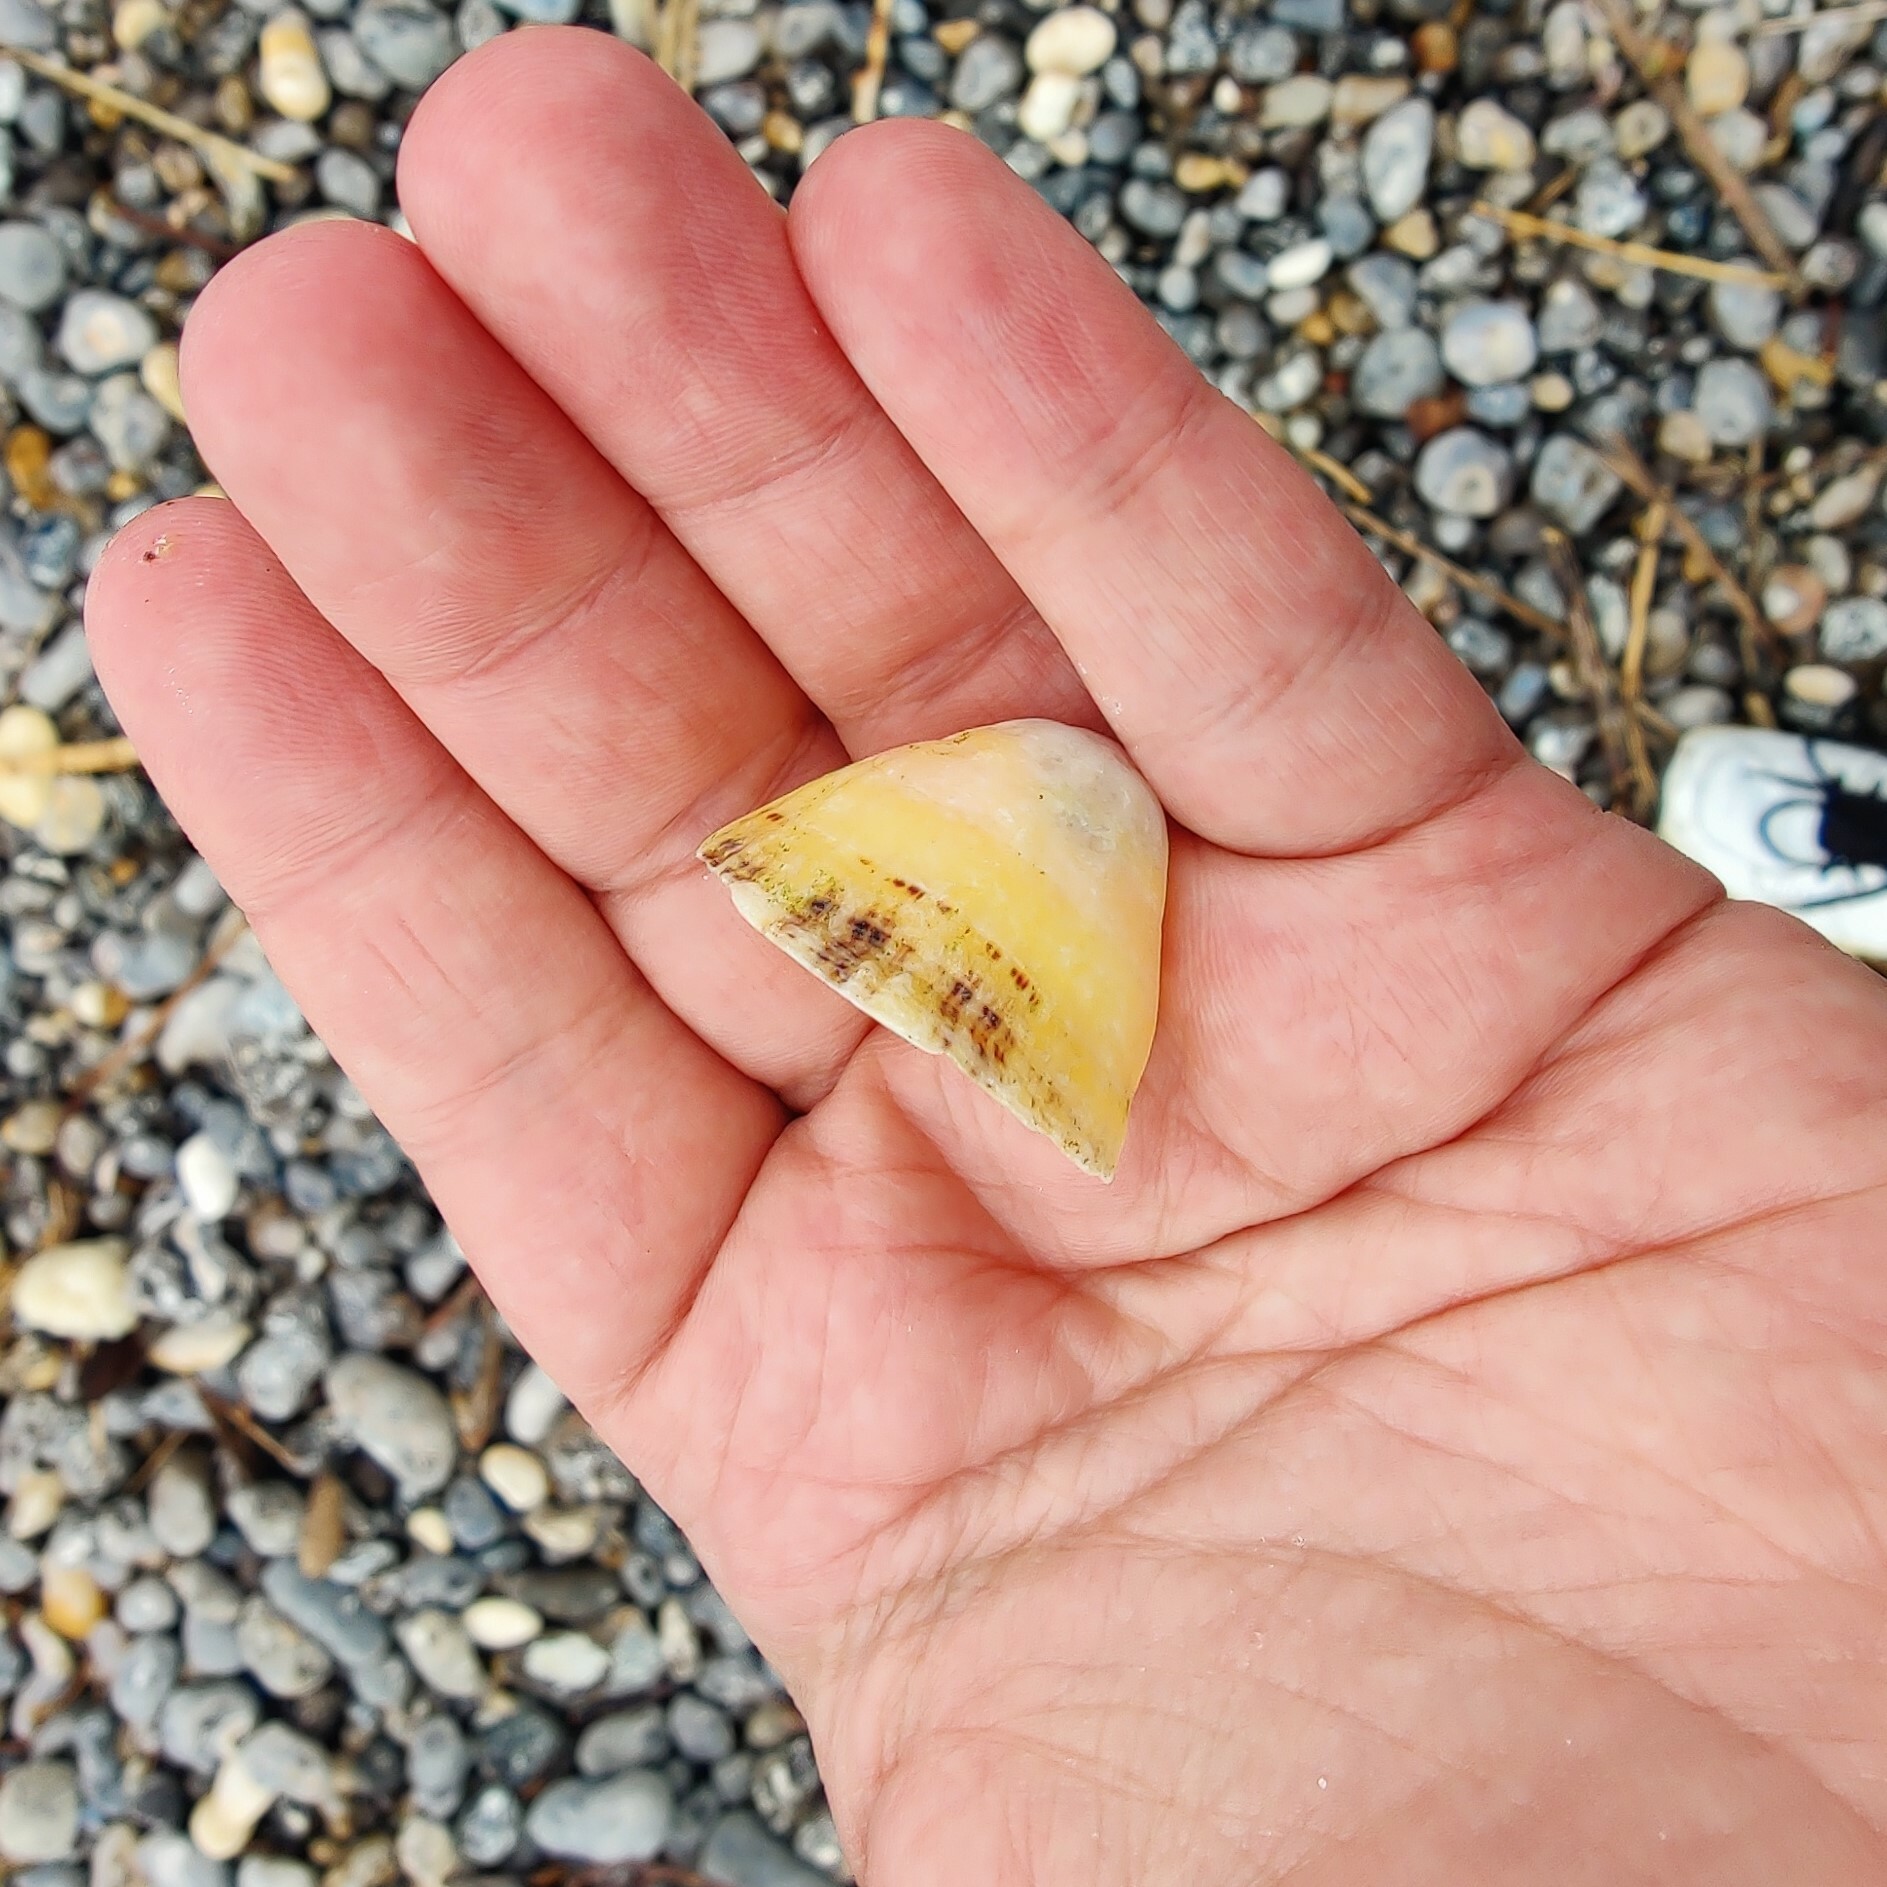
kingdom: Animalia
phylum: Mollusca
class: Gastropoda
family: Patellidae
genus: Patella
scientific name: Patella vulgata
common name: Common limpet
